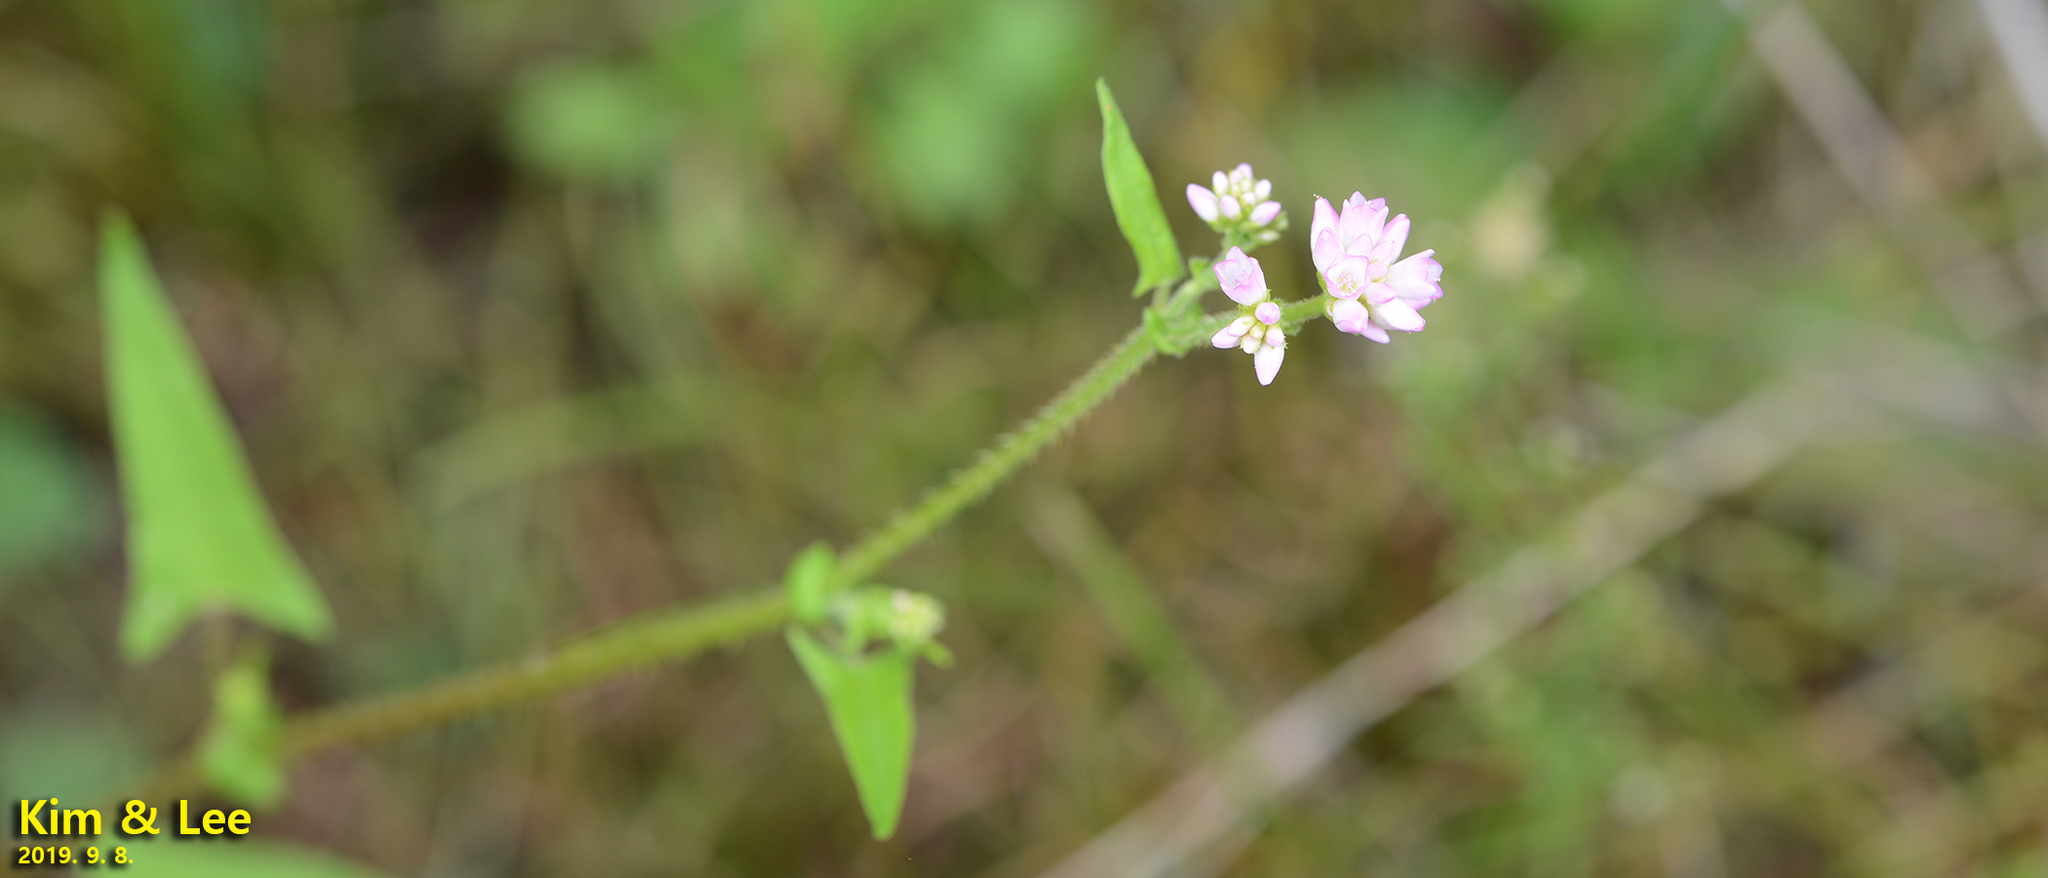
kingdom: Plantae
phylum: Tracheophyta
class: Magnoliopsida
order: Caryophyllales
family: Polygonaceae
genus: Persicaria
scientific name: Persicaria senticosa
